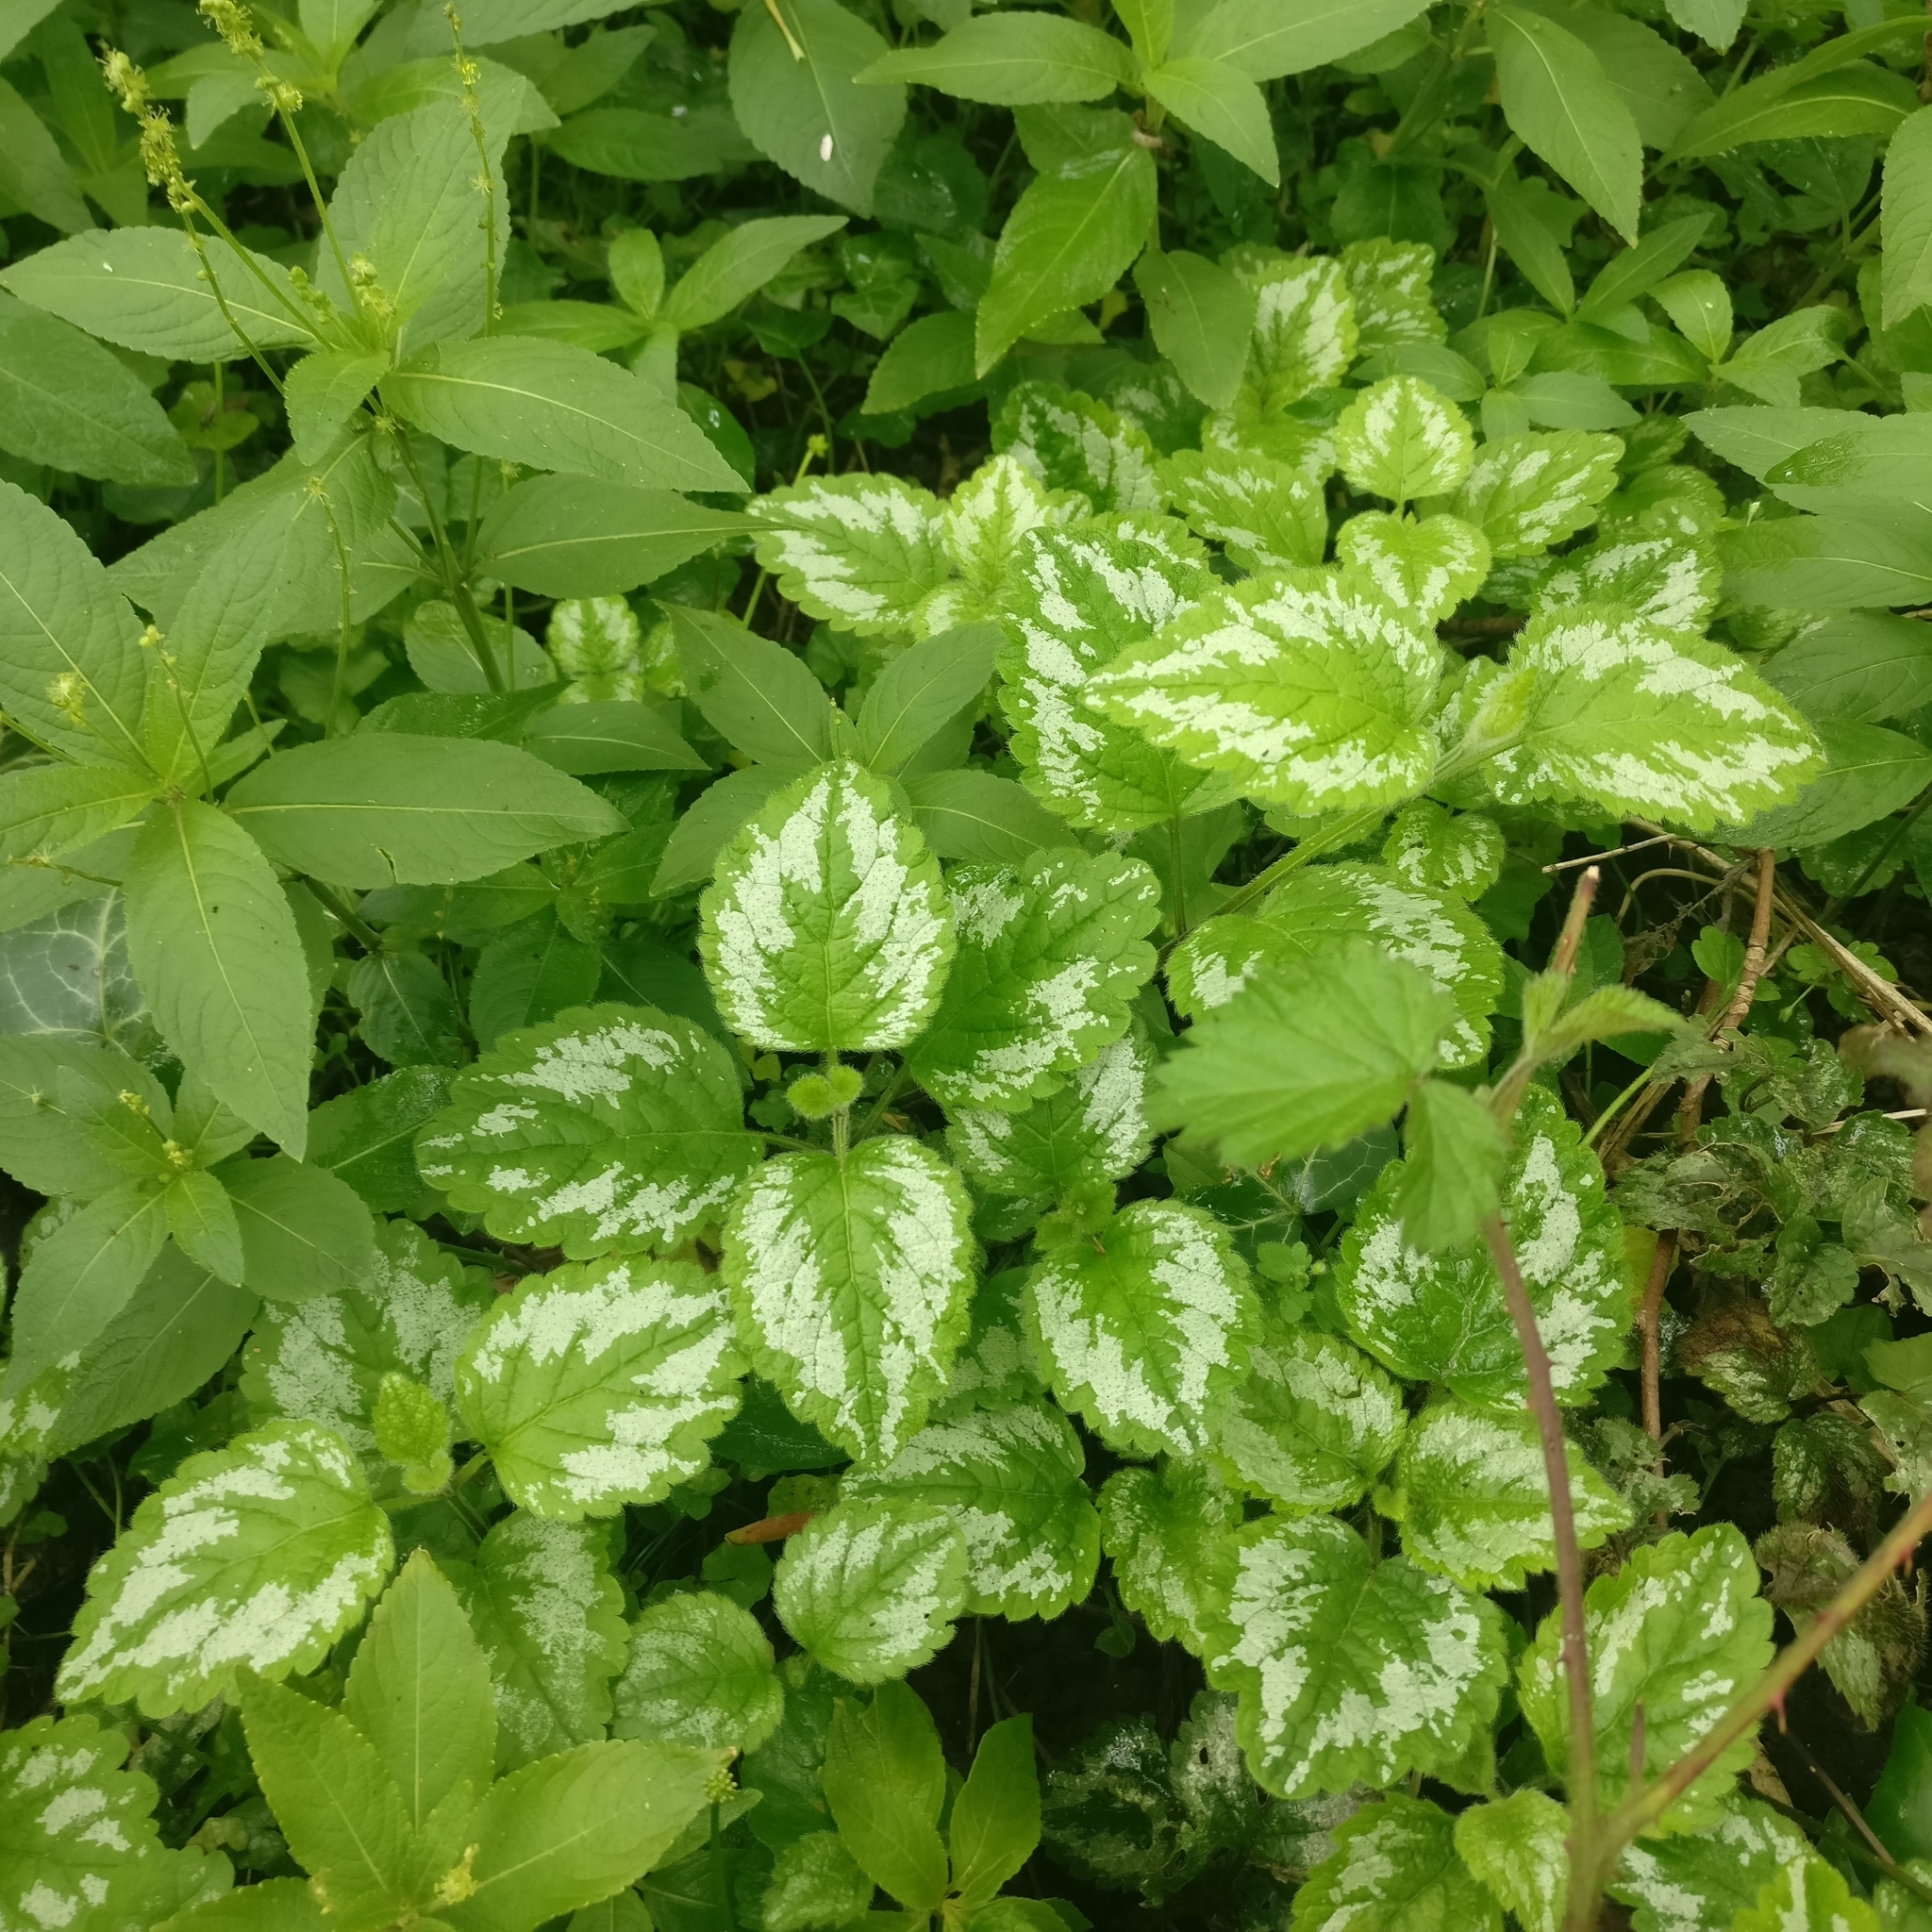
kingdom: Plantae
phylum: Tracheophyta
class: Magnoliopsida
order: Lamiales
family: Lamiaceae
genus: Lamium
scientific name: Lamium galeobdolon
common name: Yellow archangel
